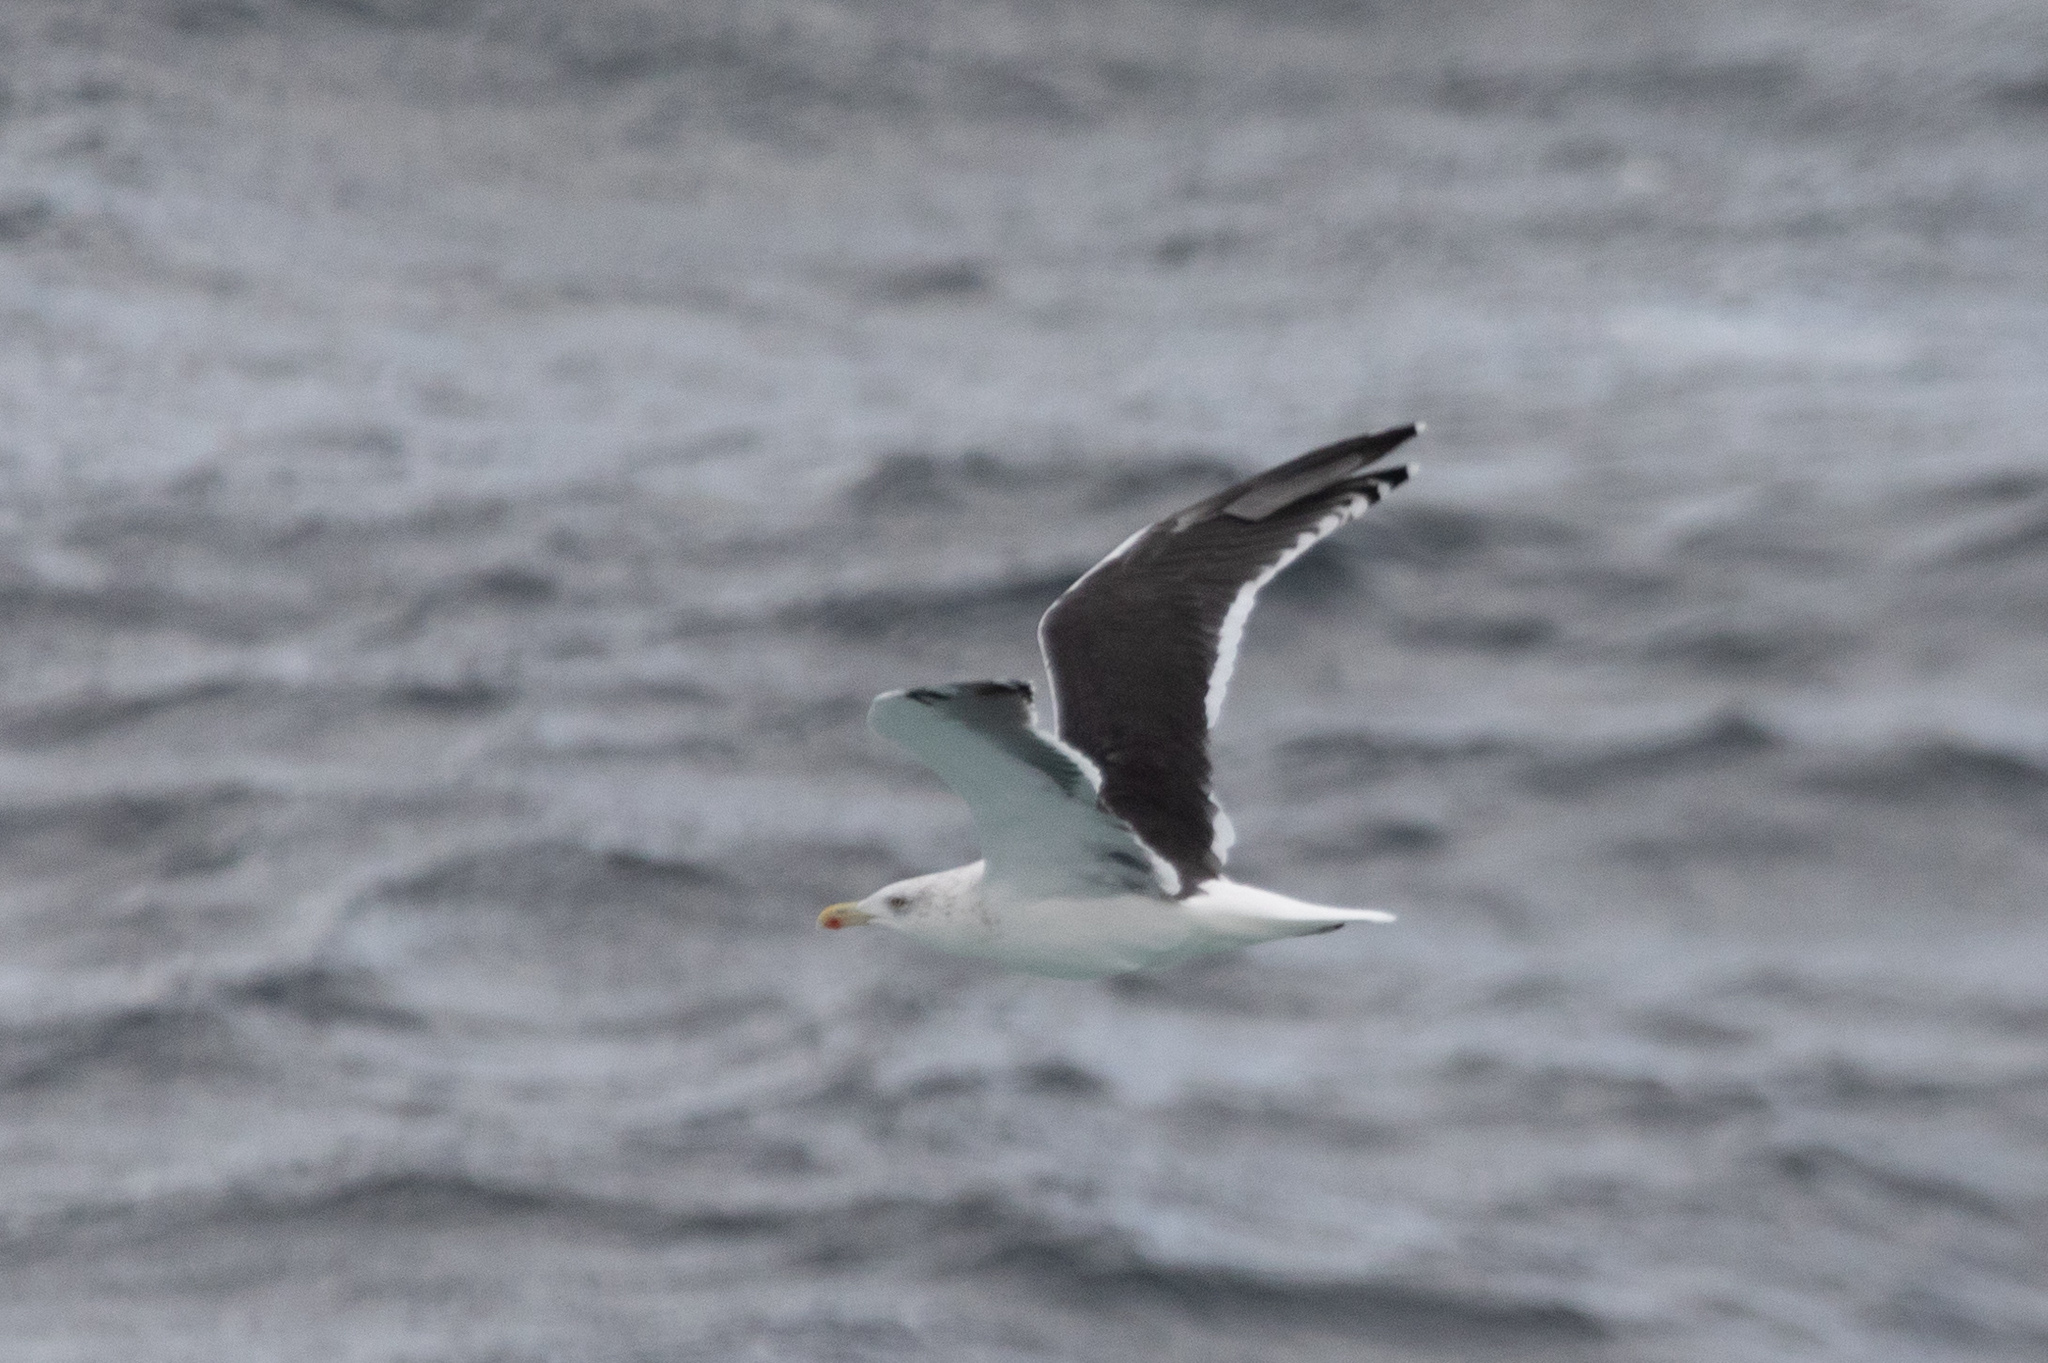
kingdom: Animalia
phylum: Chordata
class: Aves
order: Charadriiformes
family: Laridae
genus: Larus
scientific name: Larus marinus
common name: Great black-backed gull
